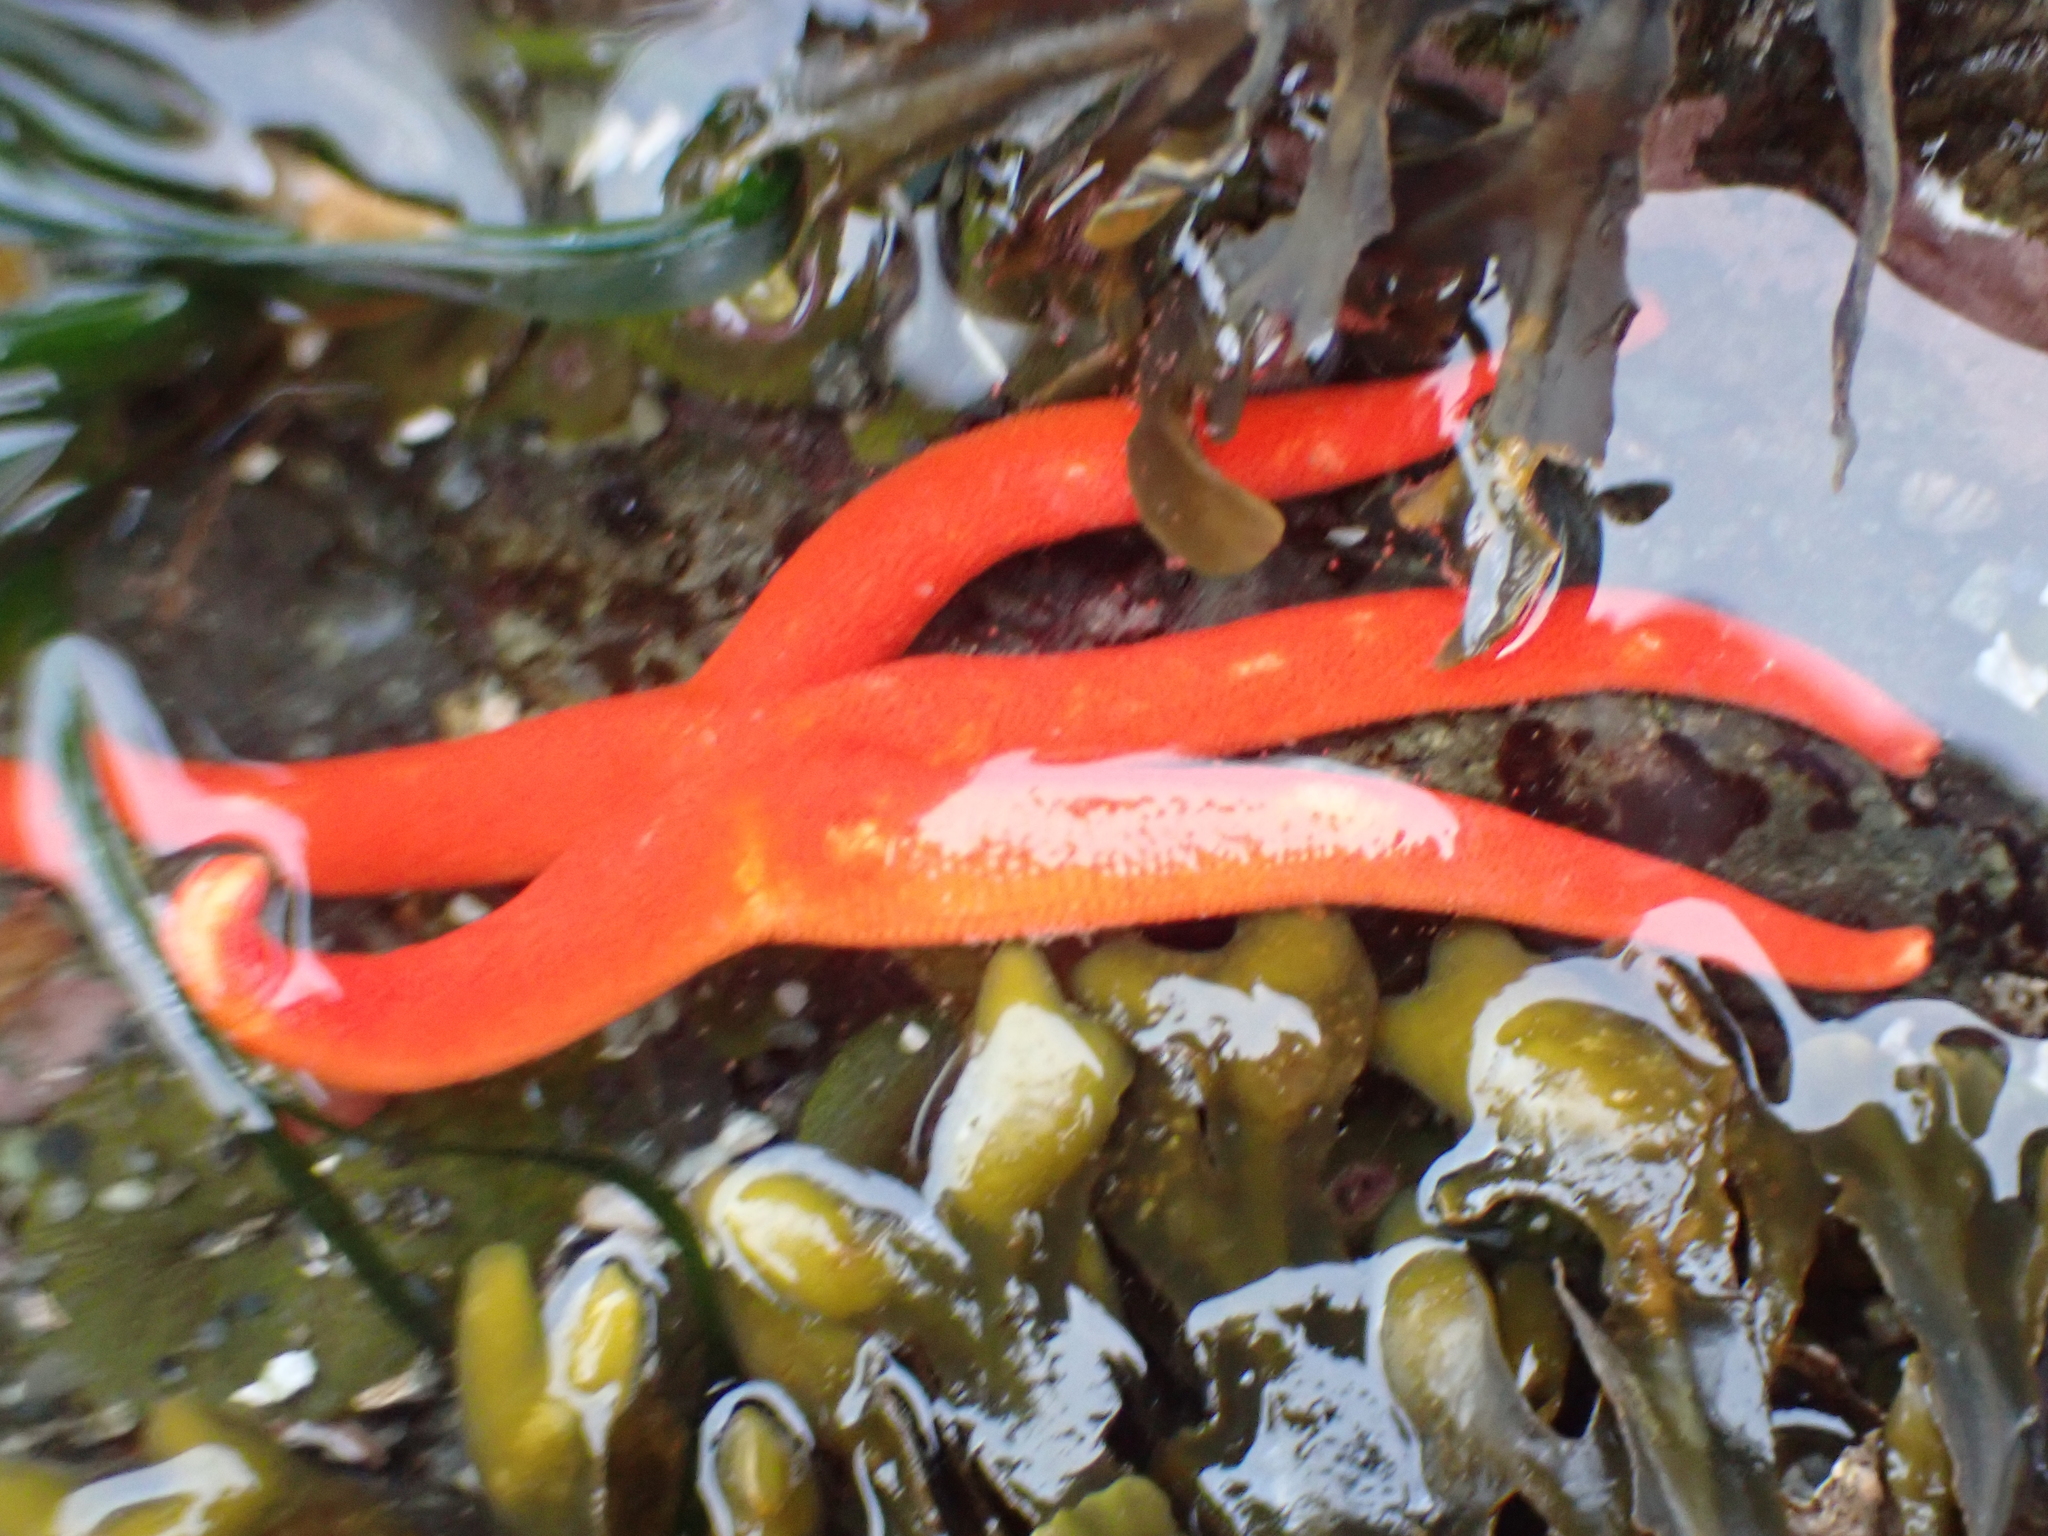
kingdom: Animalia
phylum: Echinodermata
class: Asteroidea
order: Spinulosida
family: Echinasteridae
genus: Henricia
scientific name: Henricia leviuscula
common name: Pacific blood star
